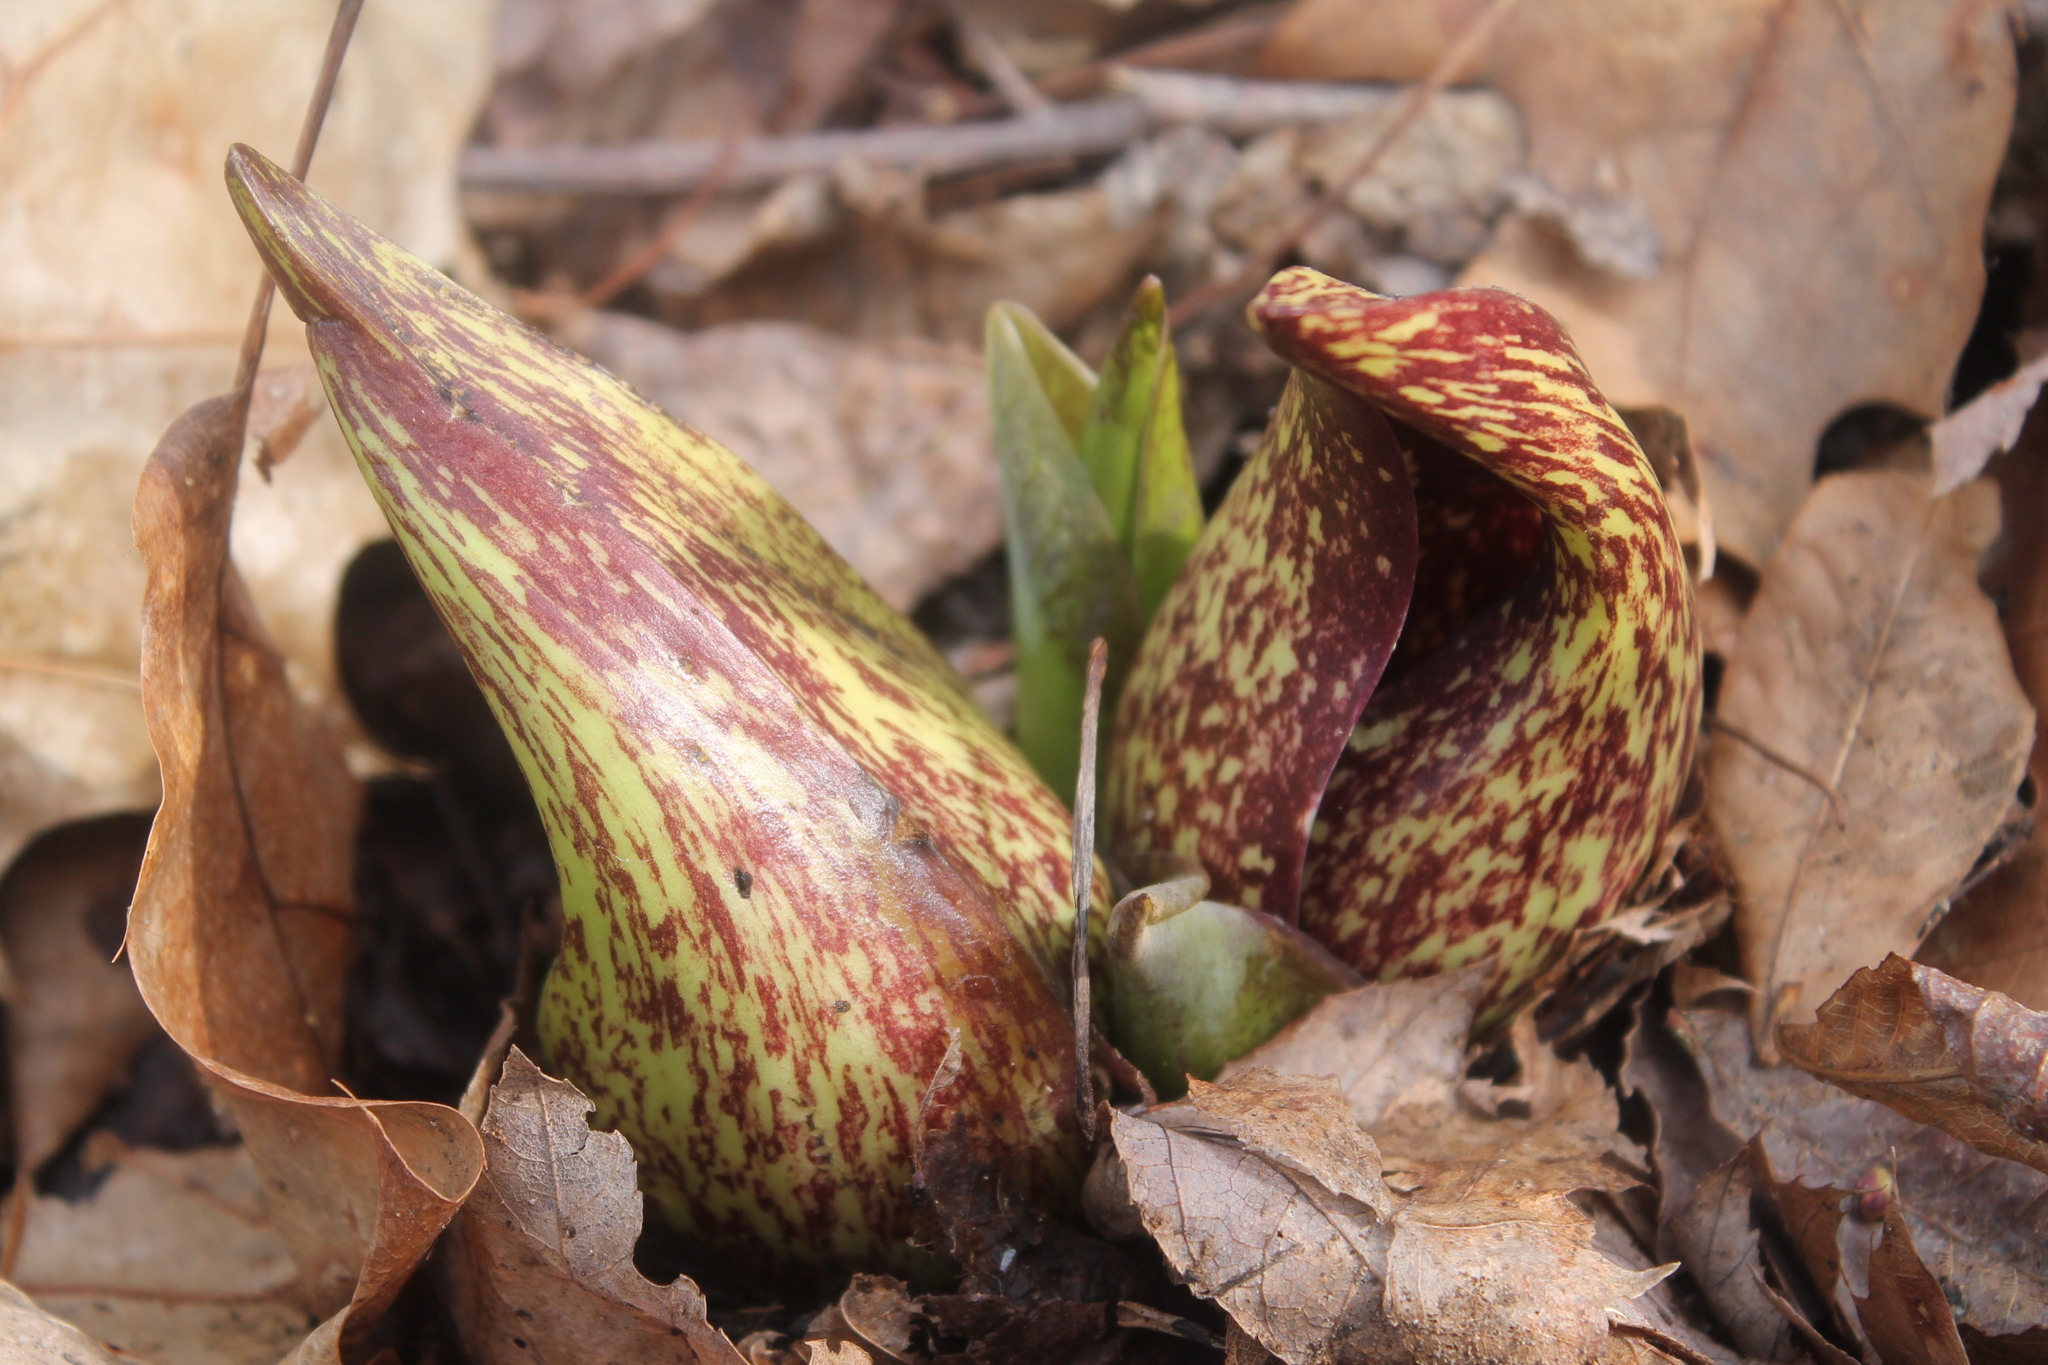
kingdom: Plantae
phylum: Tracheophyta
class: Liliopsida
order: Alismatales
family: Araceae
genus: Symplocarpus
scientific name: Symplocarpus foetidus
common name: Eastern skunk cabbage
